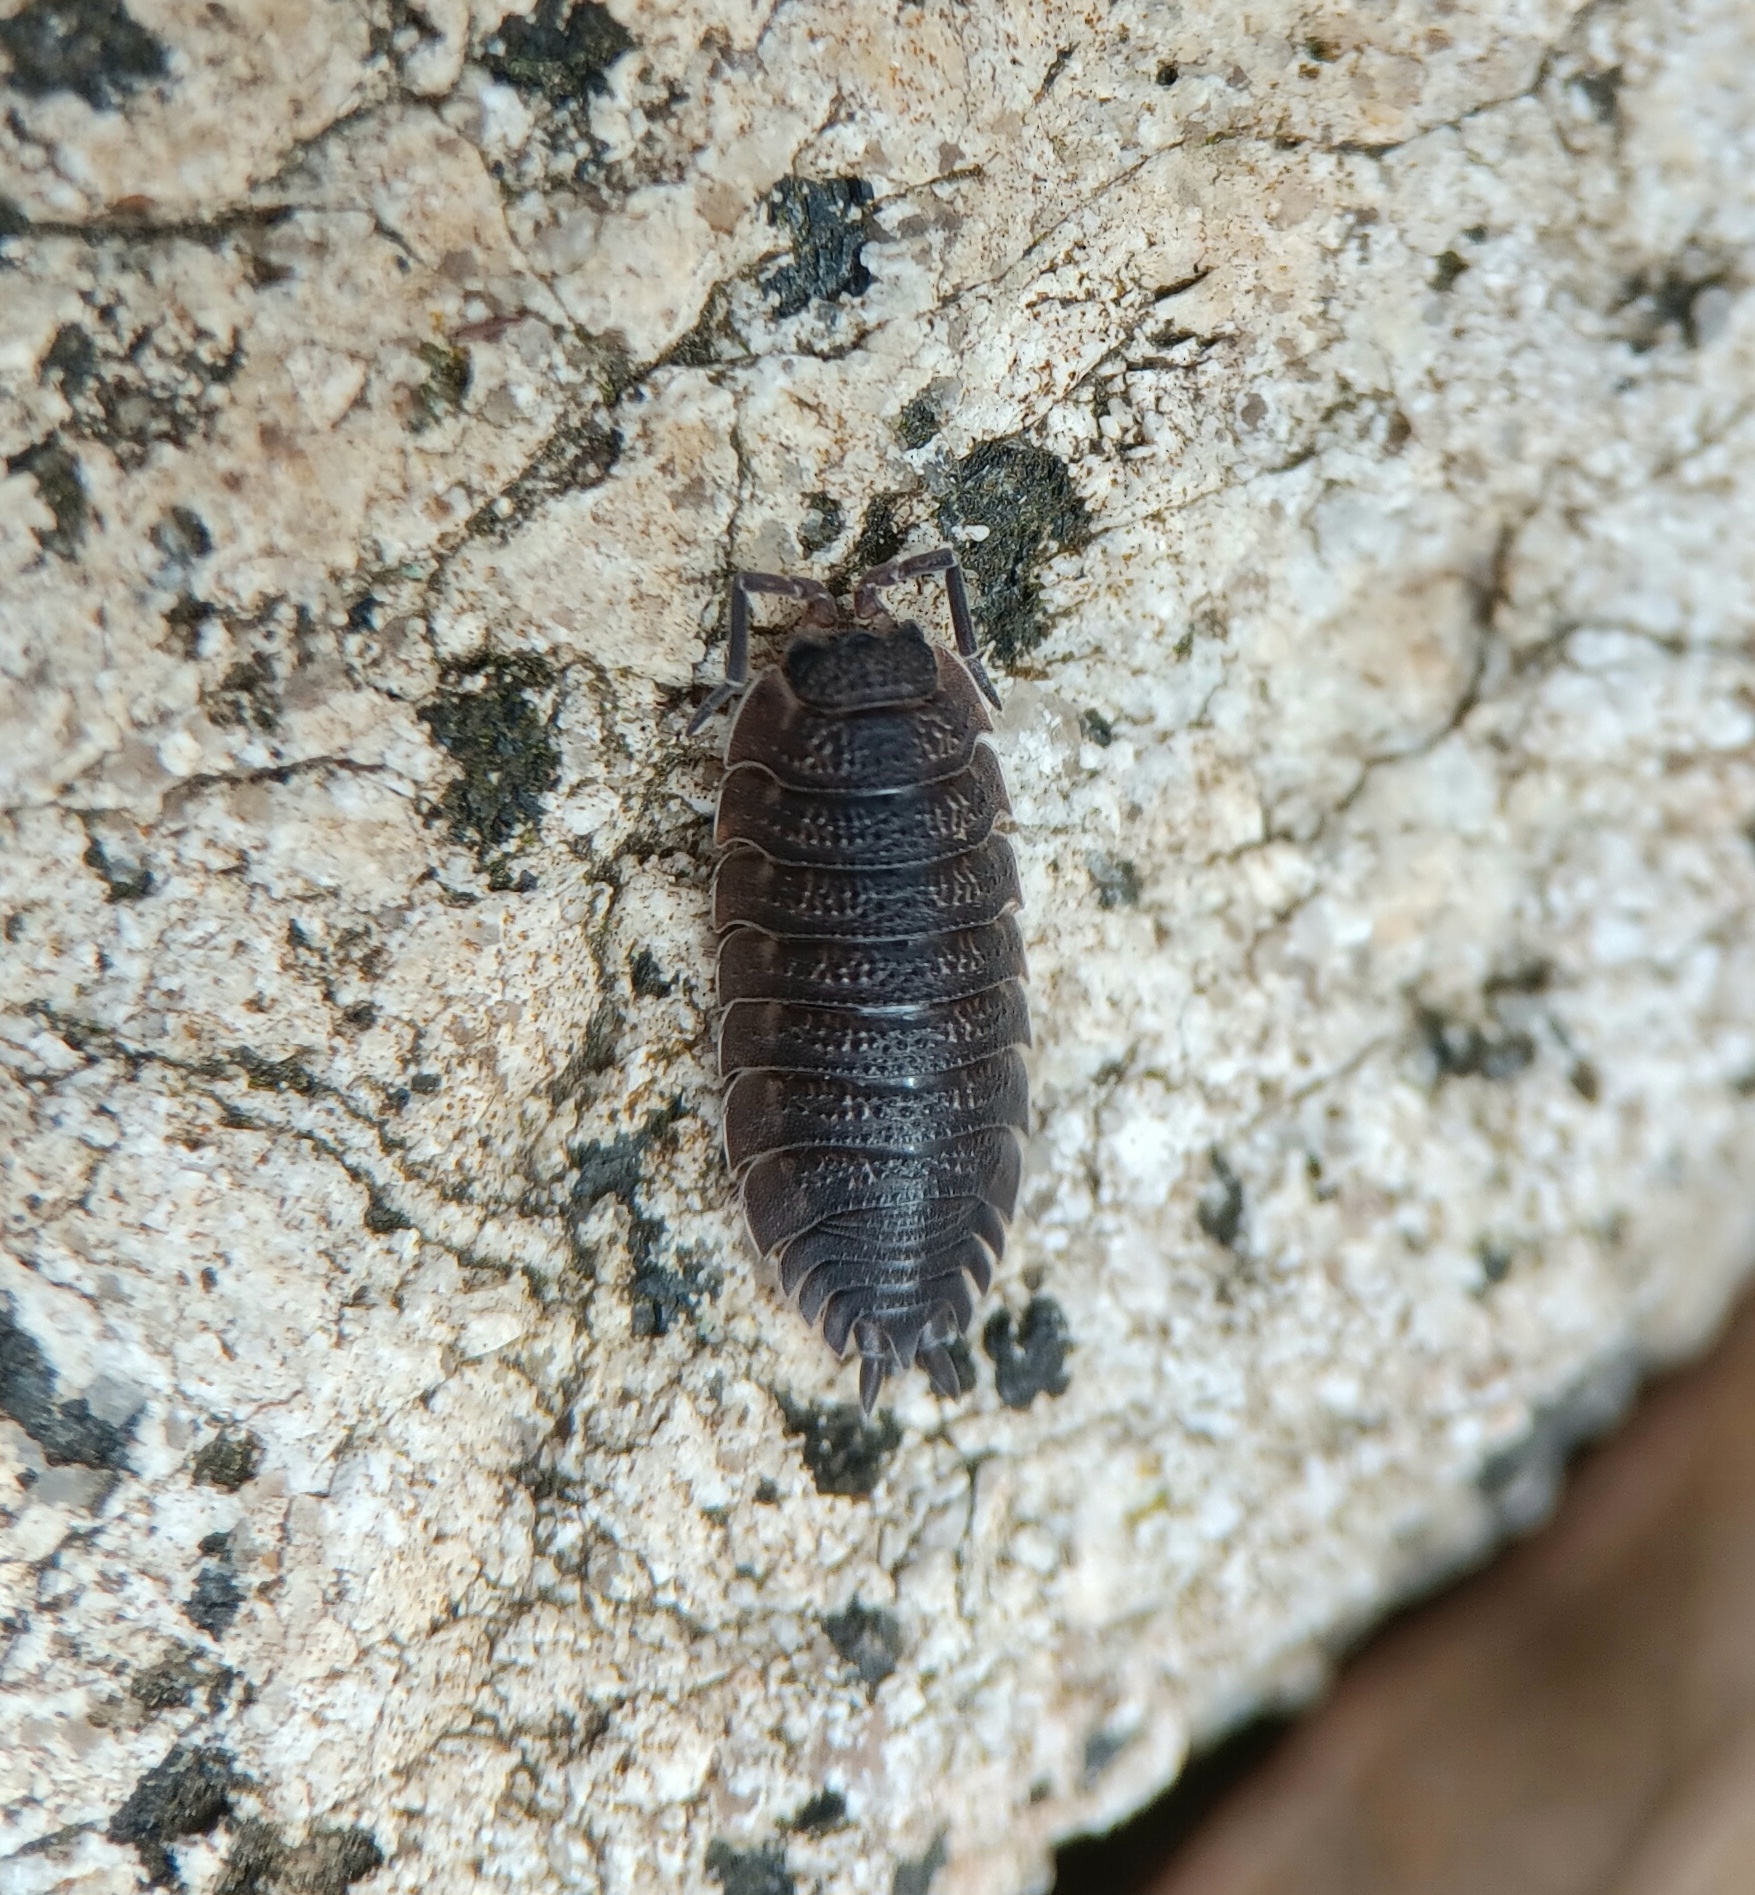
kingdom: Animalia
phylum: Arthropoda
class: Malacostraca
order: Isopoda
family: Porcellionidae
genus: Porcellio
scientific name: Porcellio scaber
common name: Common rough woodlouse
